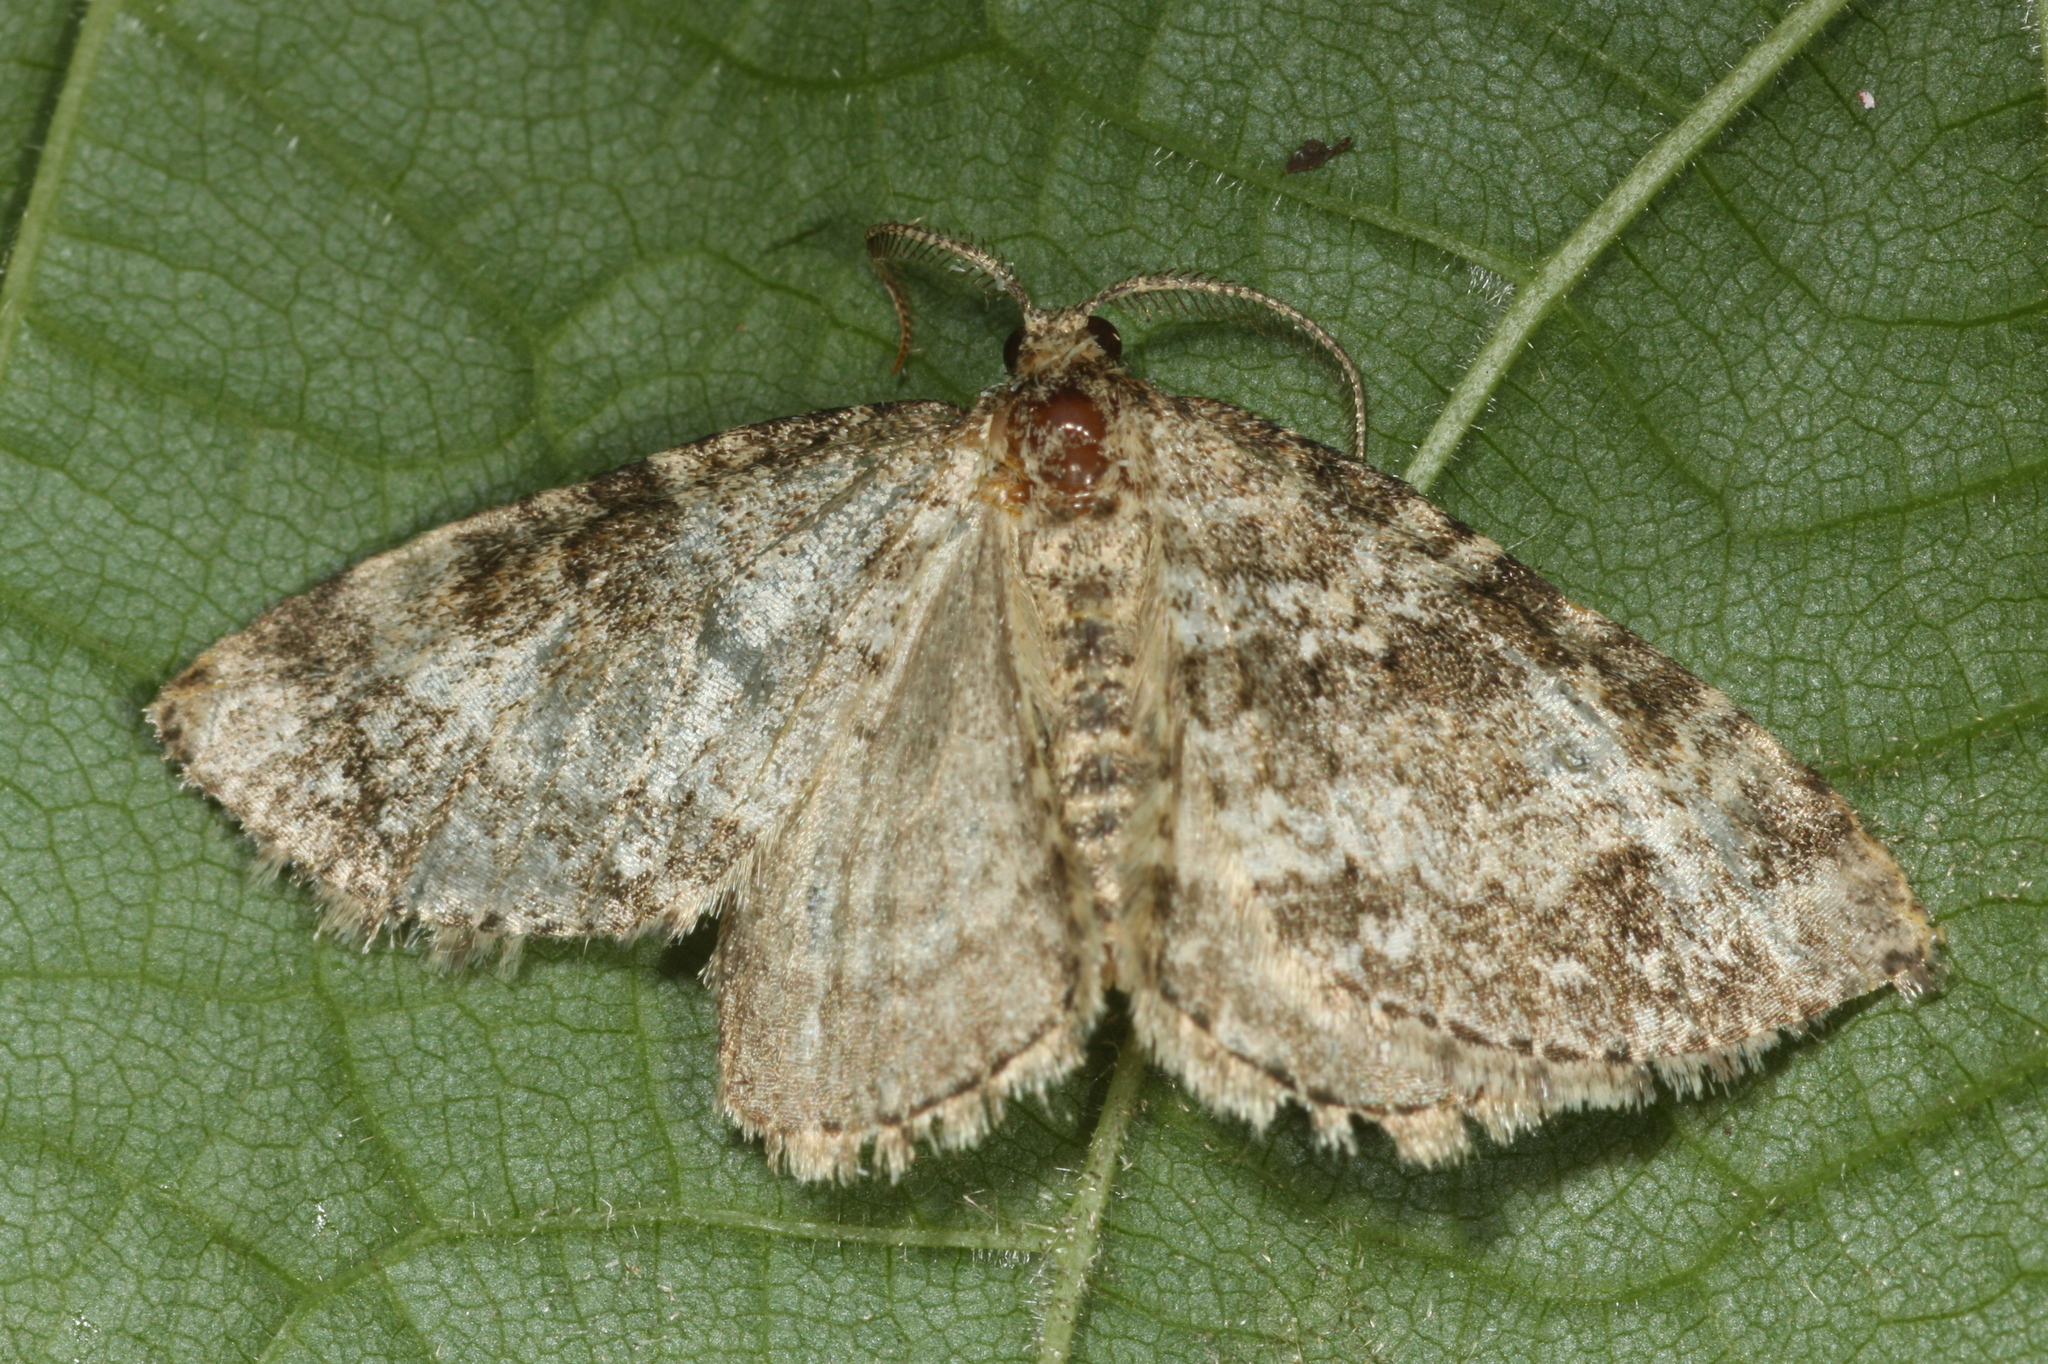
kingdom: Animalia
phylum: Arthropoda
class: Insecta
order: Lepidoptera
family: Geometridae
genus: Perizoma
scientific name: Perizoma didymata
